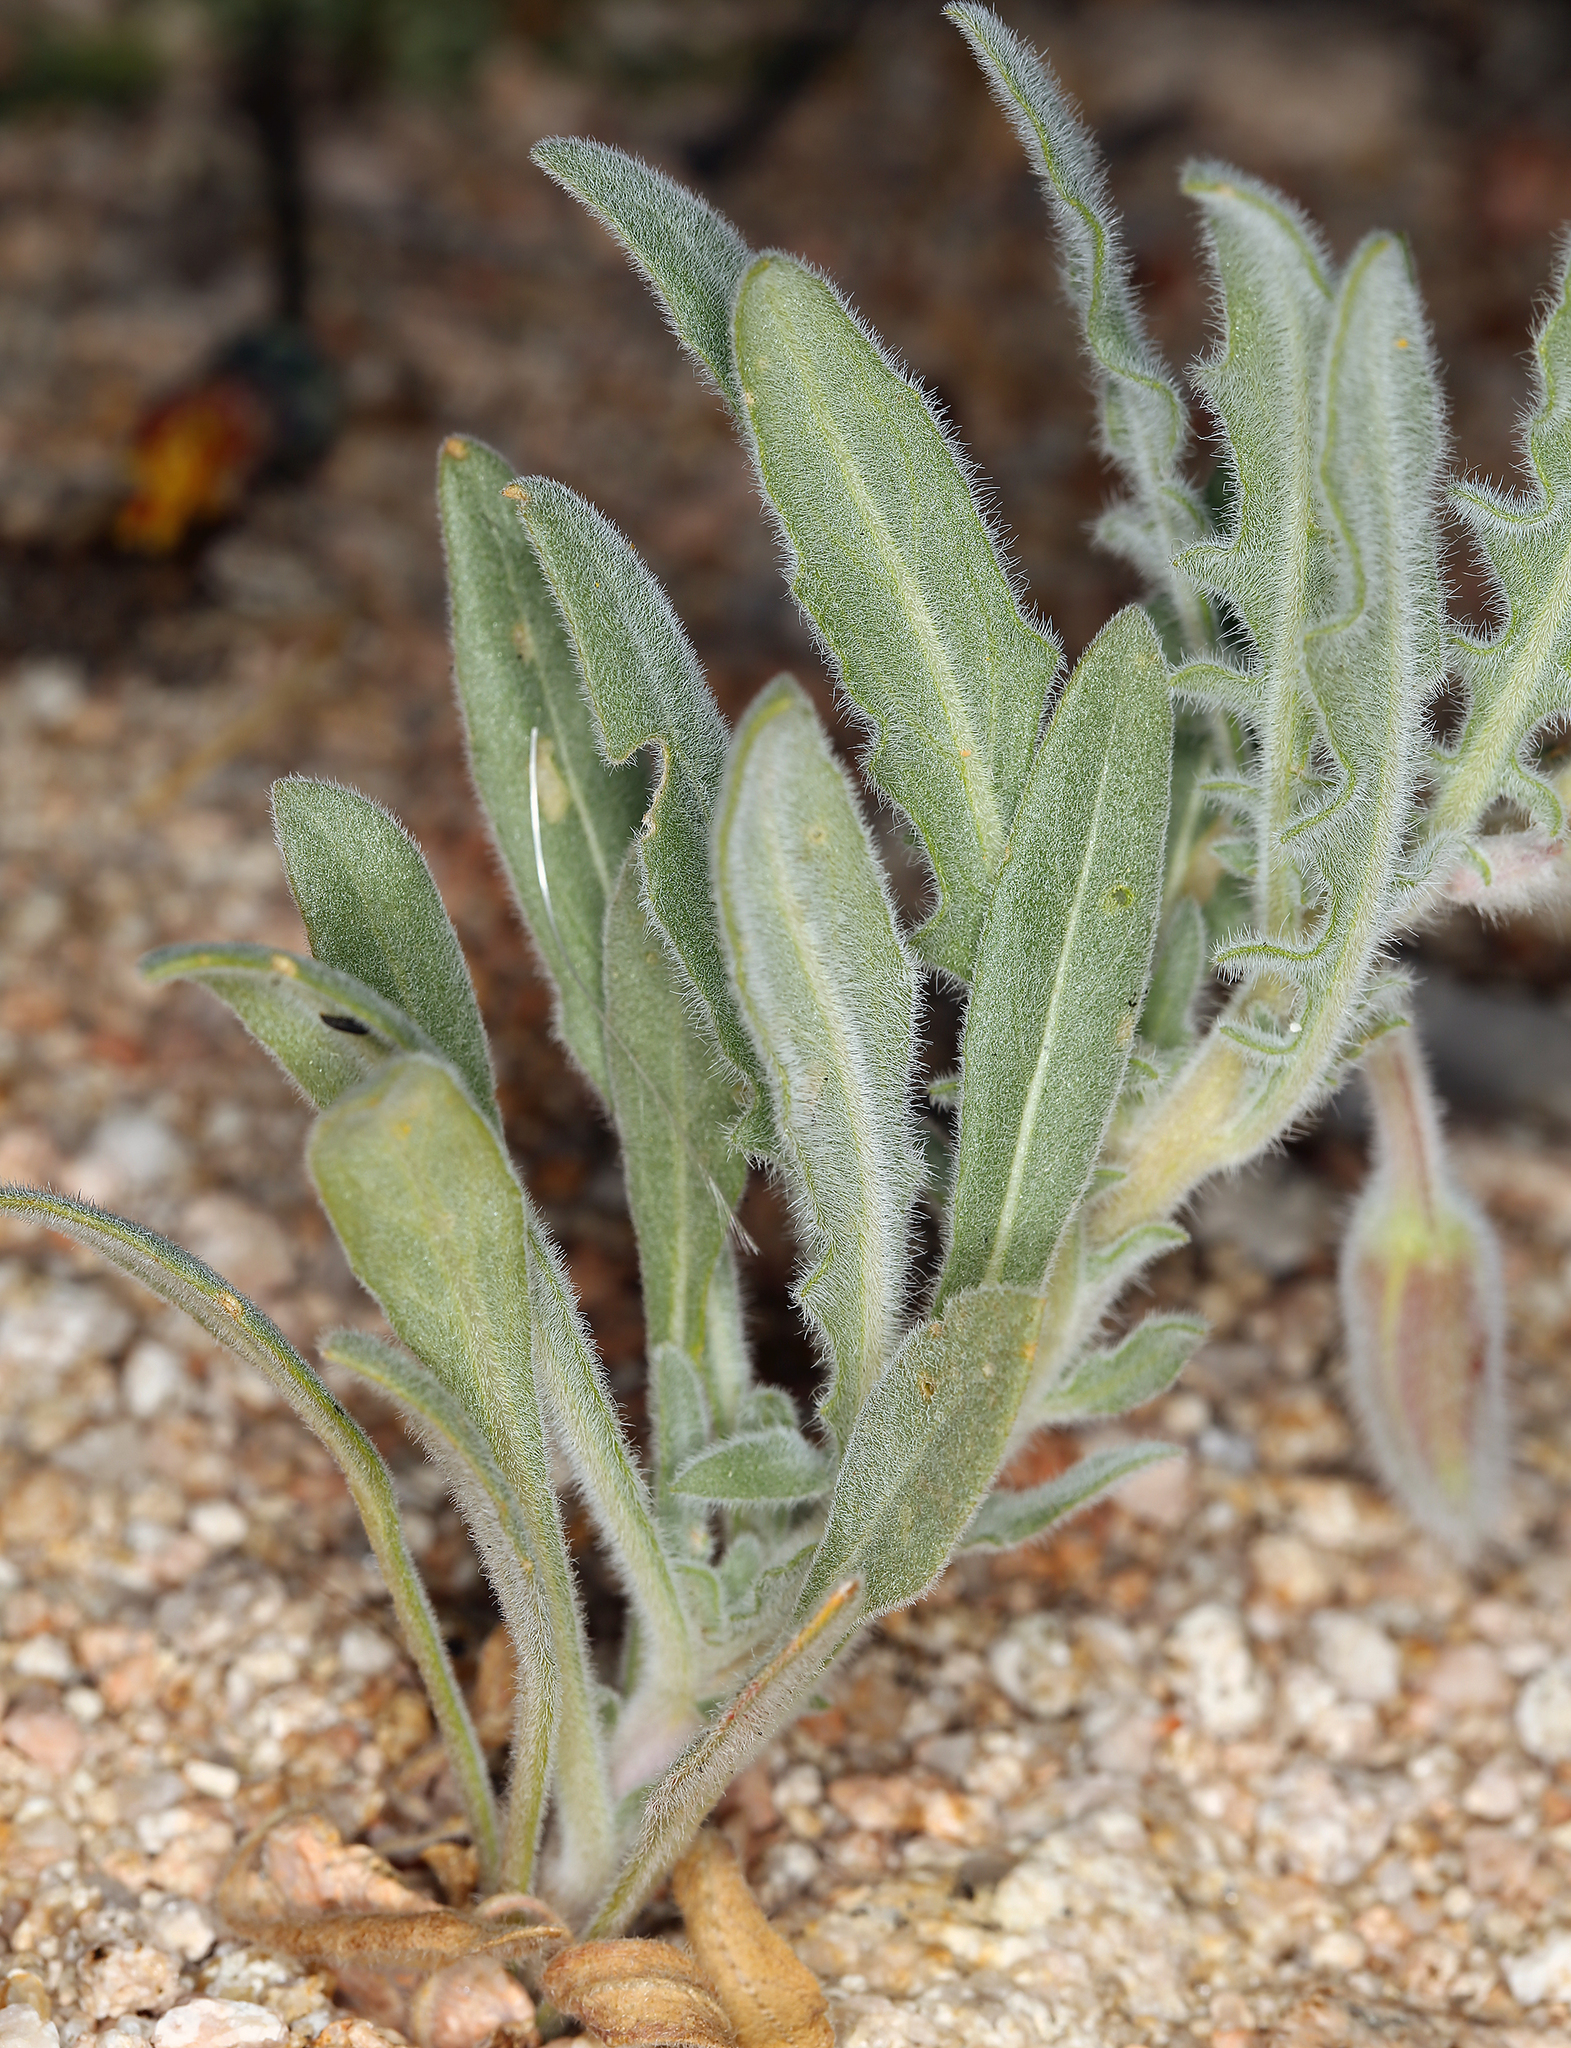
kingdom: Plantae
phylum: Tracheophyta
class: Magnoliopsida
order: Myrtales
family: Onagraceae
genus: Oenothera
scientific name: Oenothera californica
